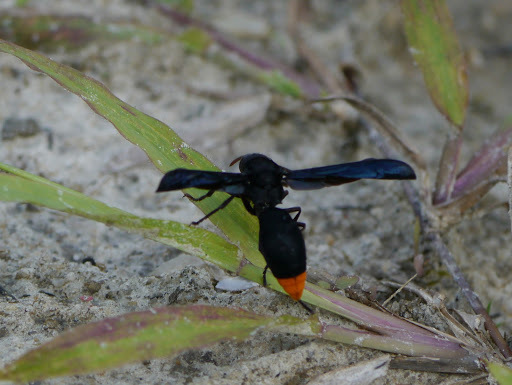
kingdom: Animalia
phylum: Arthropoda
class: Insecta
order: Hymenoptera
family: Vespidae
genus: Synagris
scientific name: Synagris
